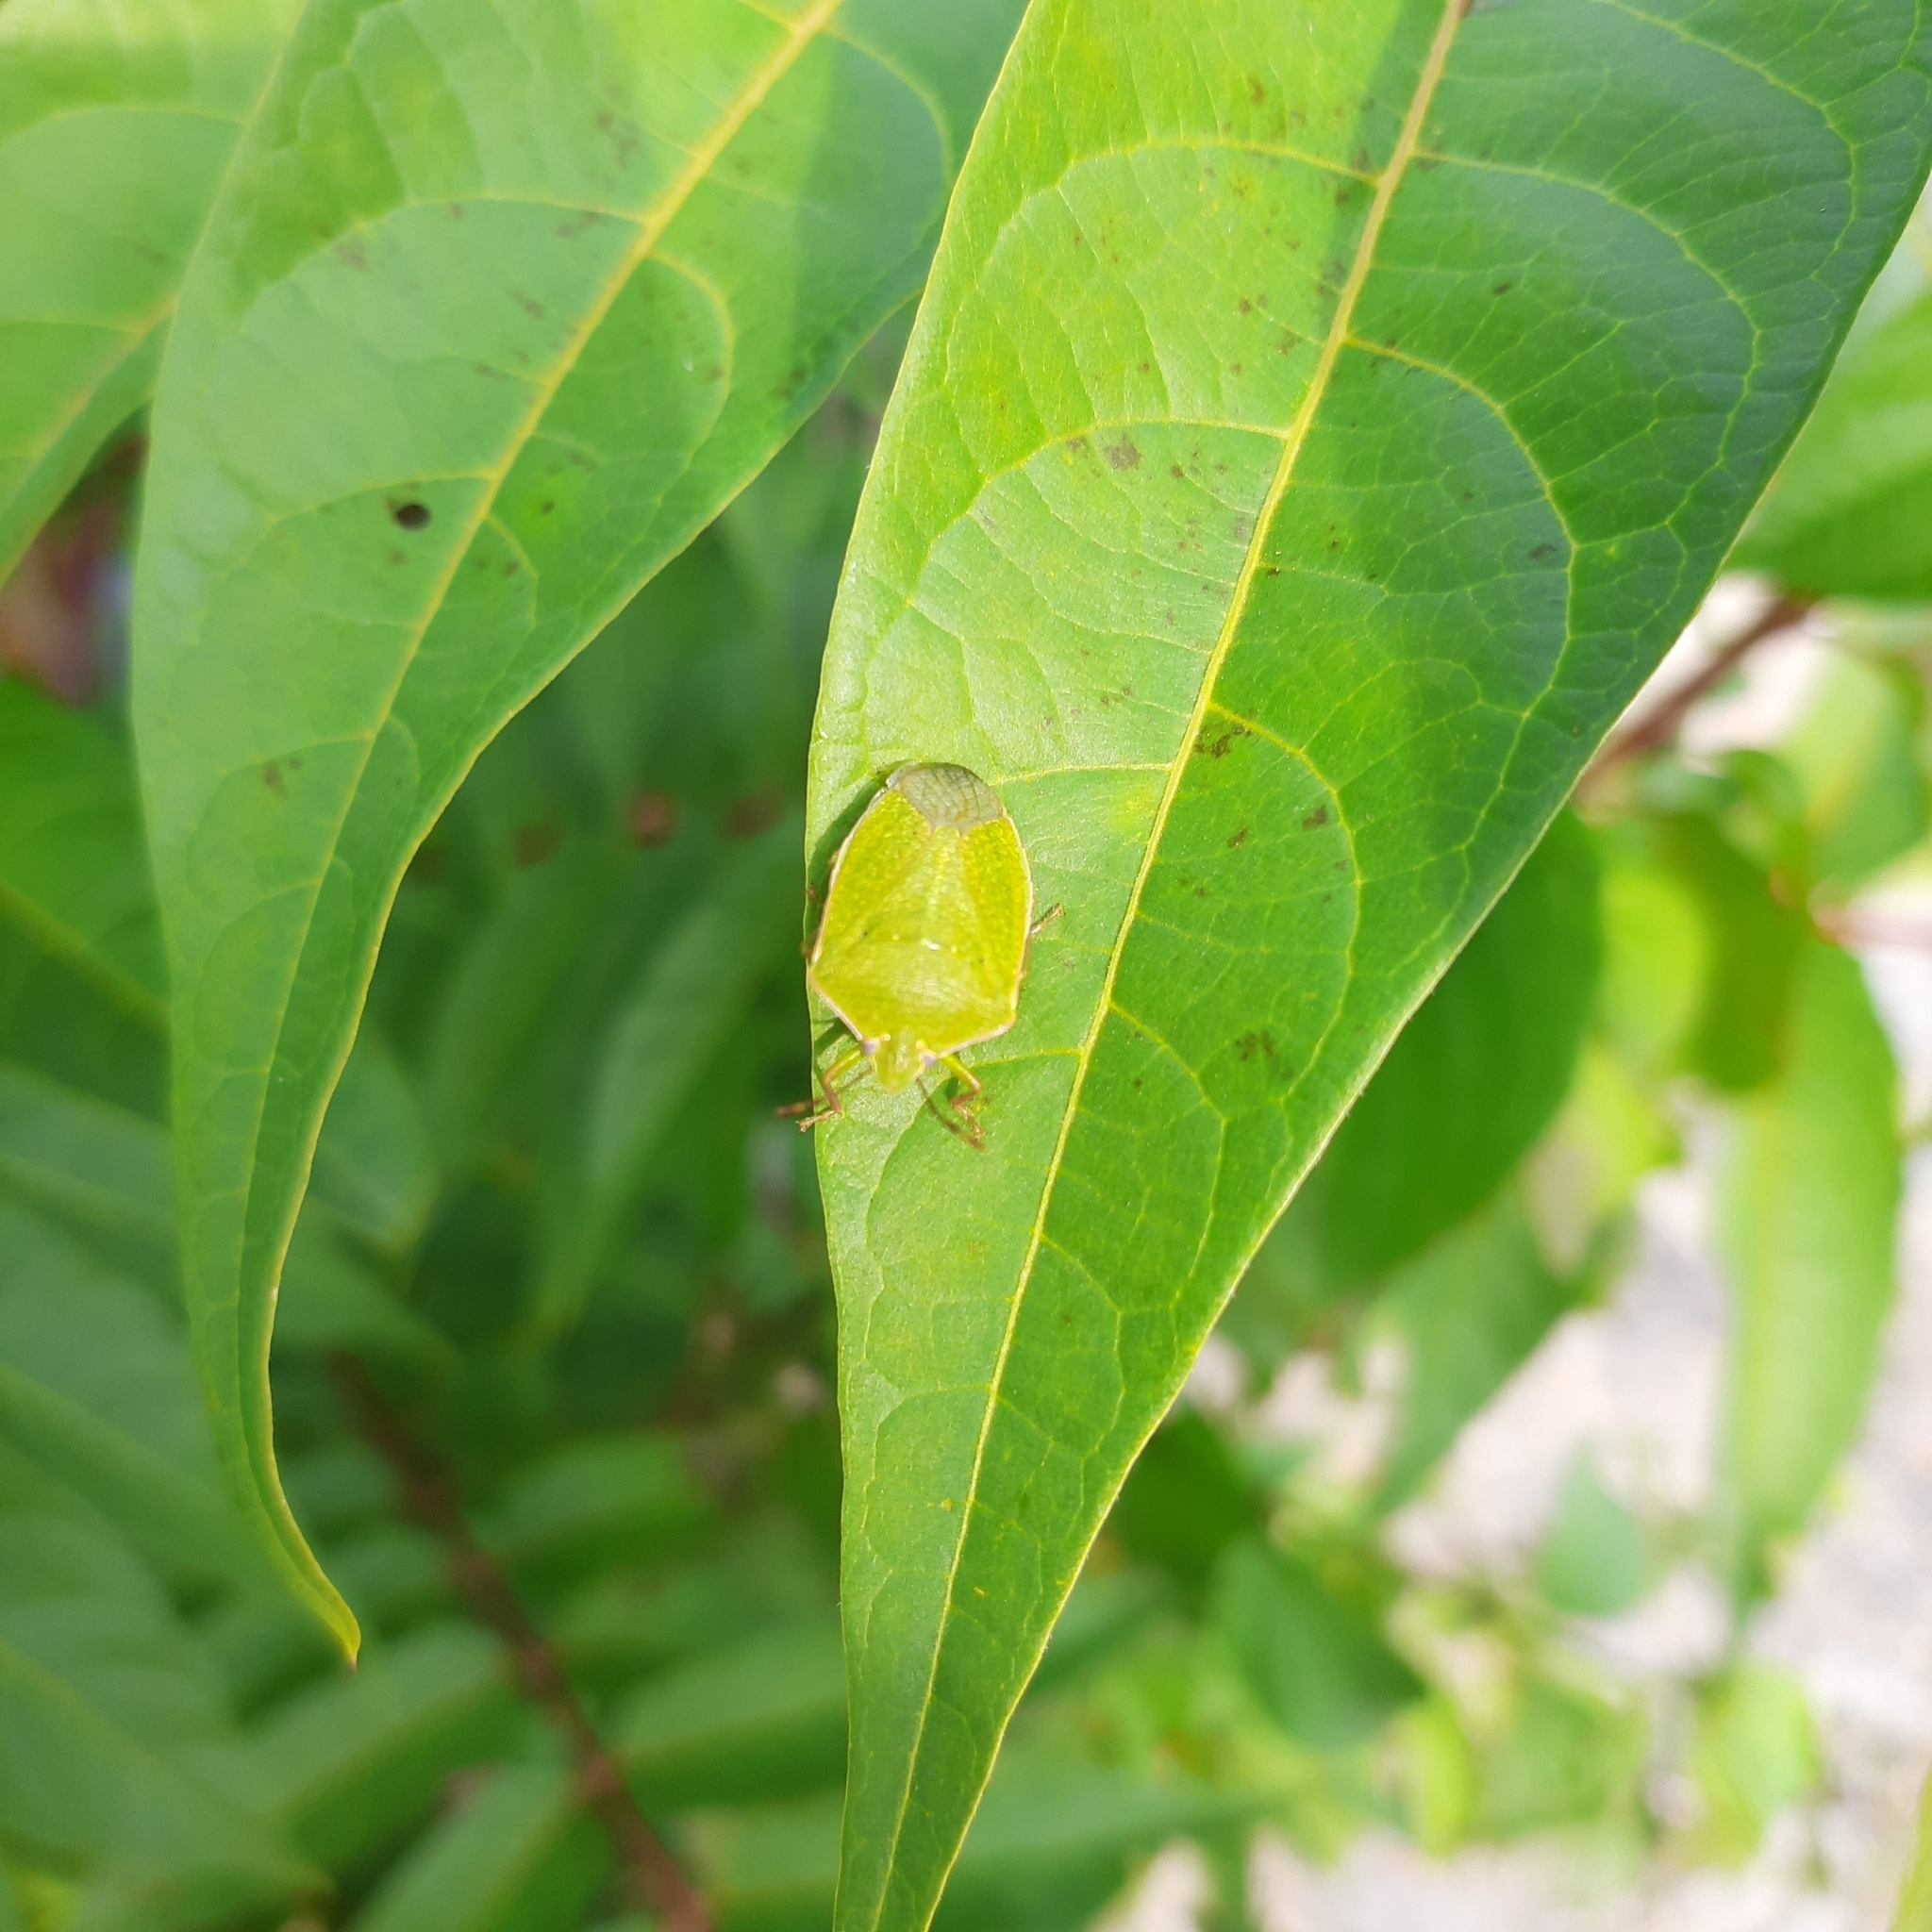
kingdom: Animalia
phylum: Arthropoda
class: Insecta
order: Hemiptera
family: Pentatomidae
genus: Nezara
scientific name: Nezara viridula
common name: Southern green stink bug
